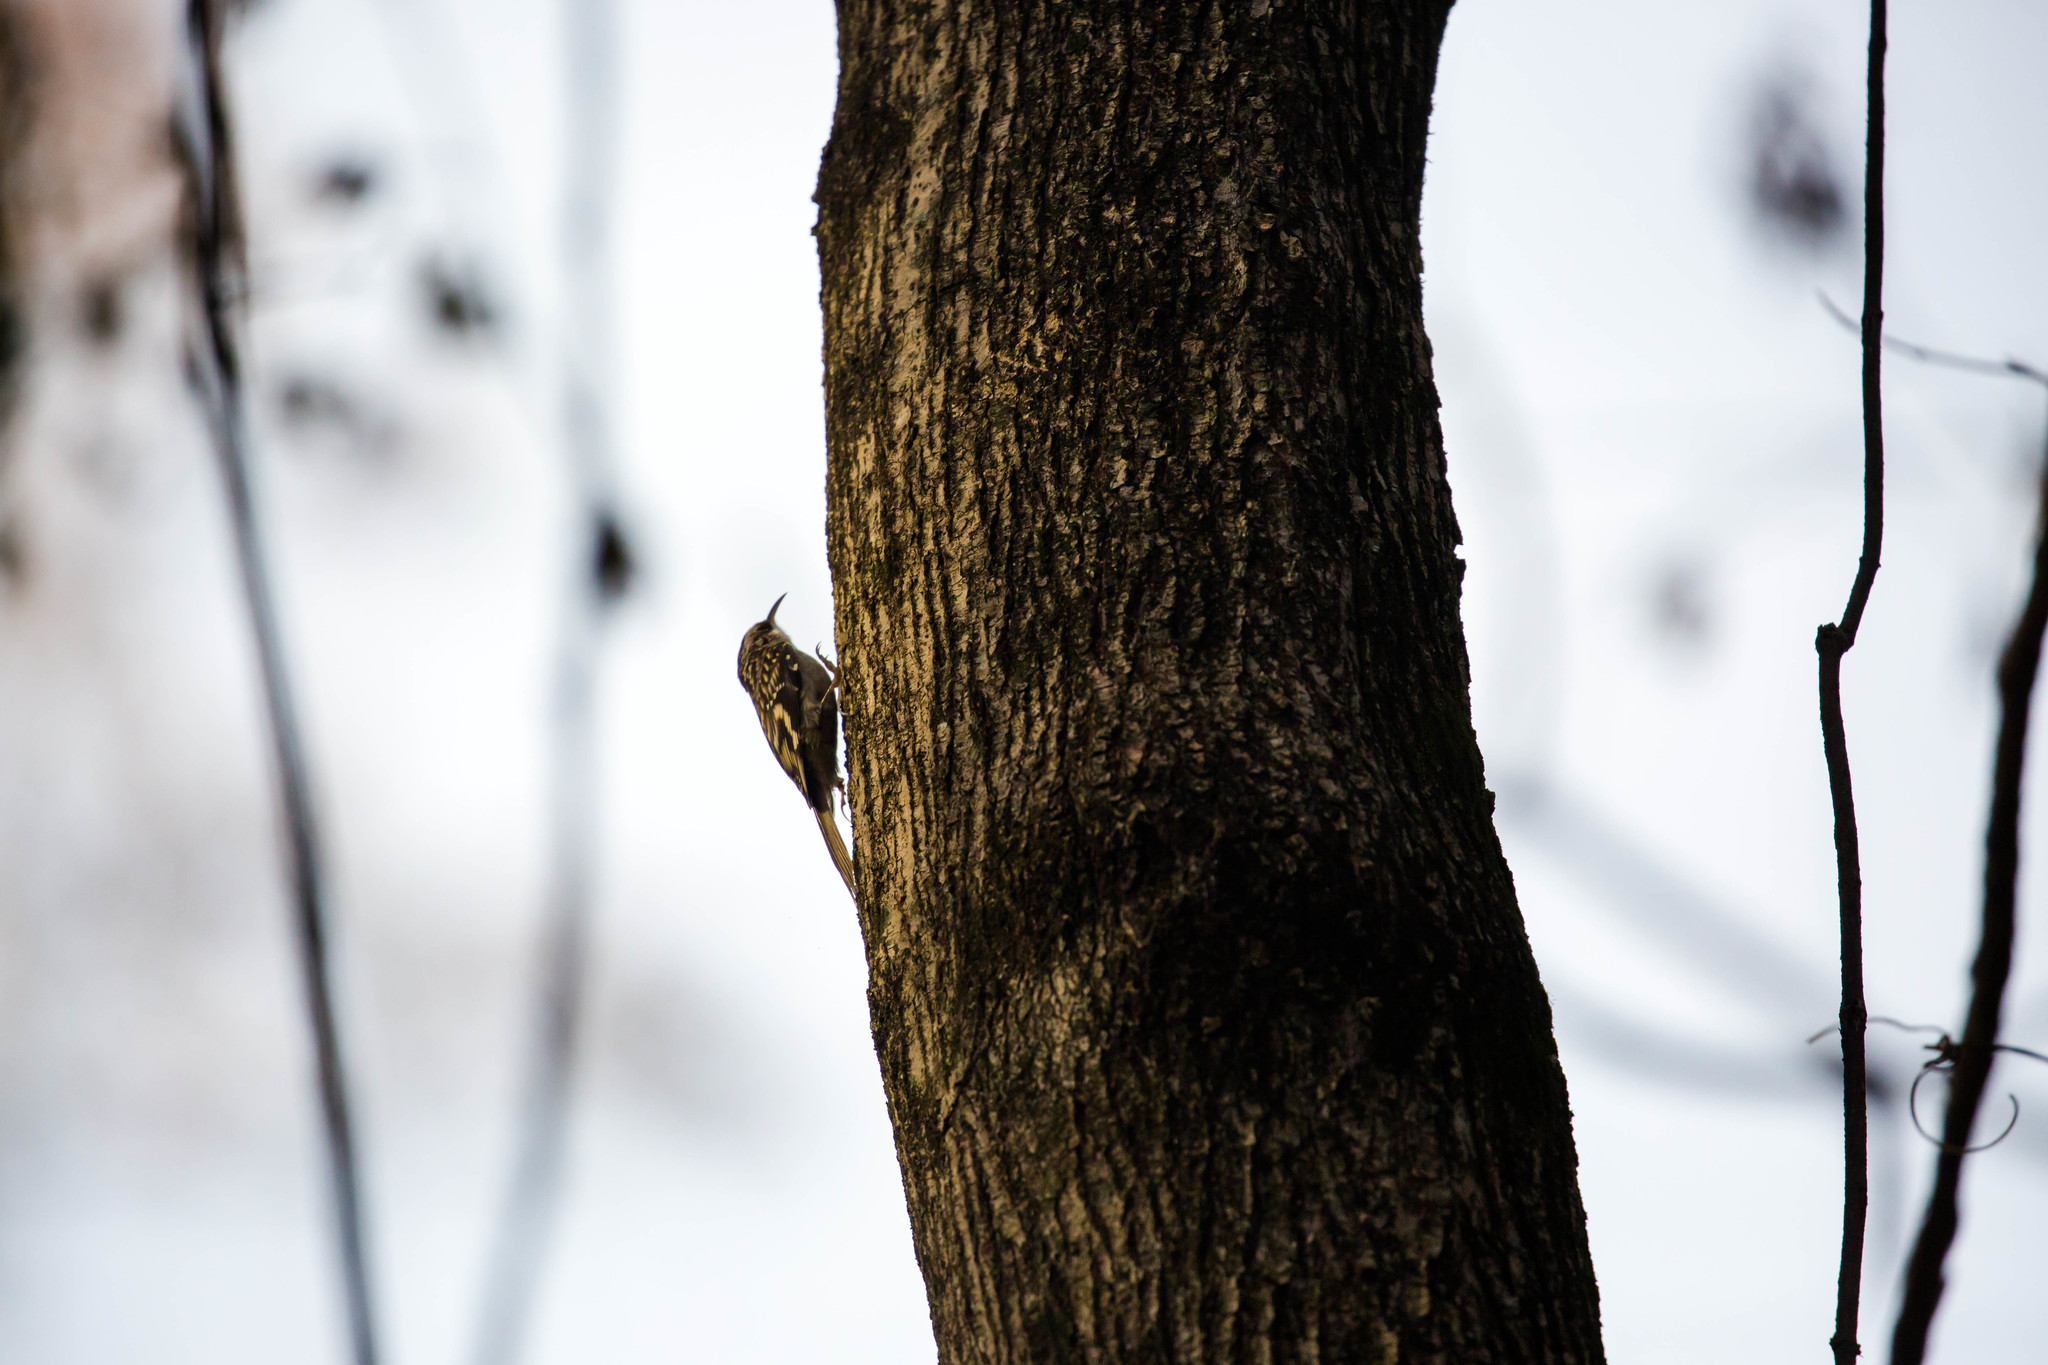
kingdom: Animalia
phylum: Chordata
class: Aves
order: Passeriformes
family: Certhiidae
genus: Certhia
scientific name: Certhia americana
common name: Brown creeper
